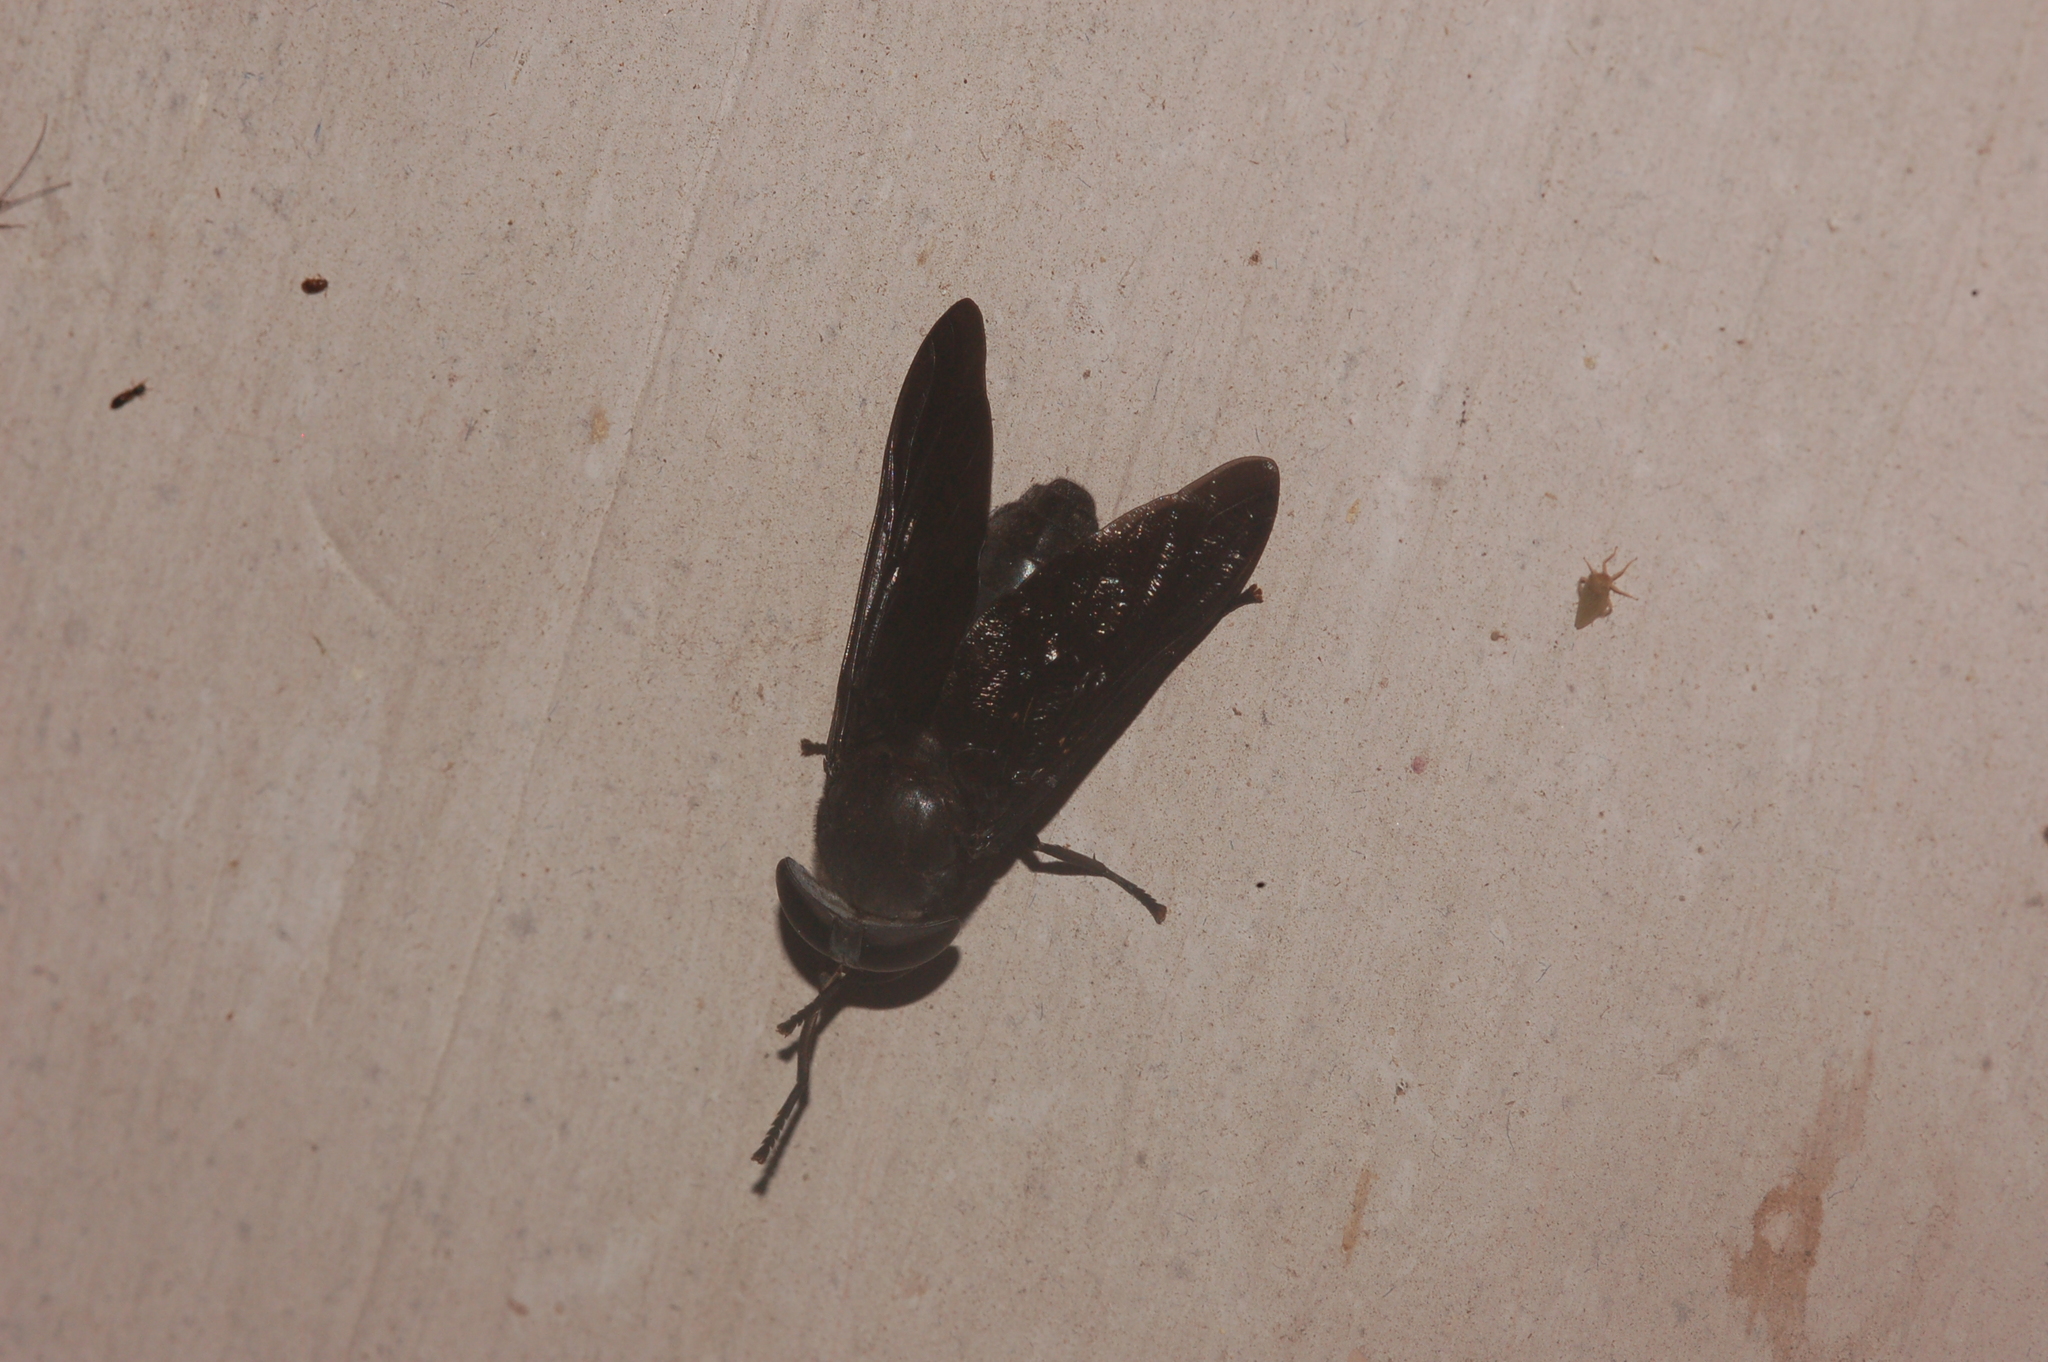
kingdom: Animalia
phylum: Arthropoda
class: Insecta
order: Diptera
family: Tabanidae
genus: Tabanus
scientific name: Tabanus atratus
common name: Black horse fly
